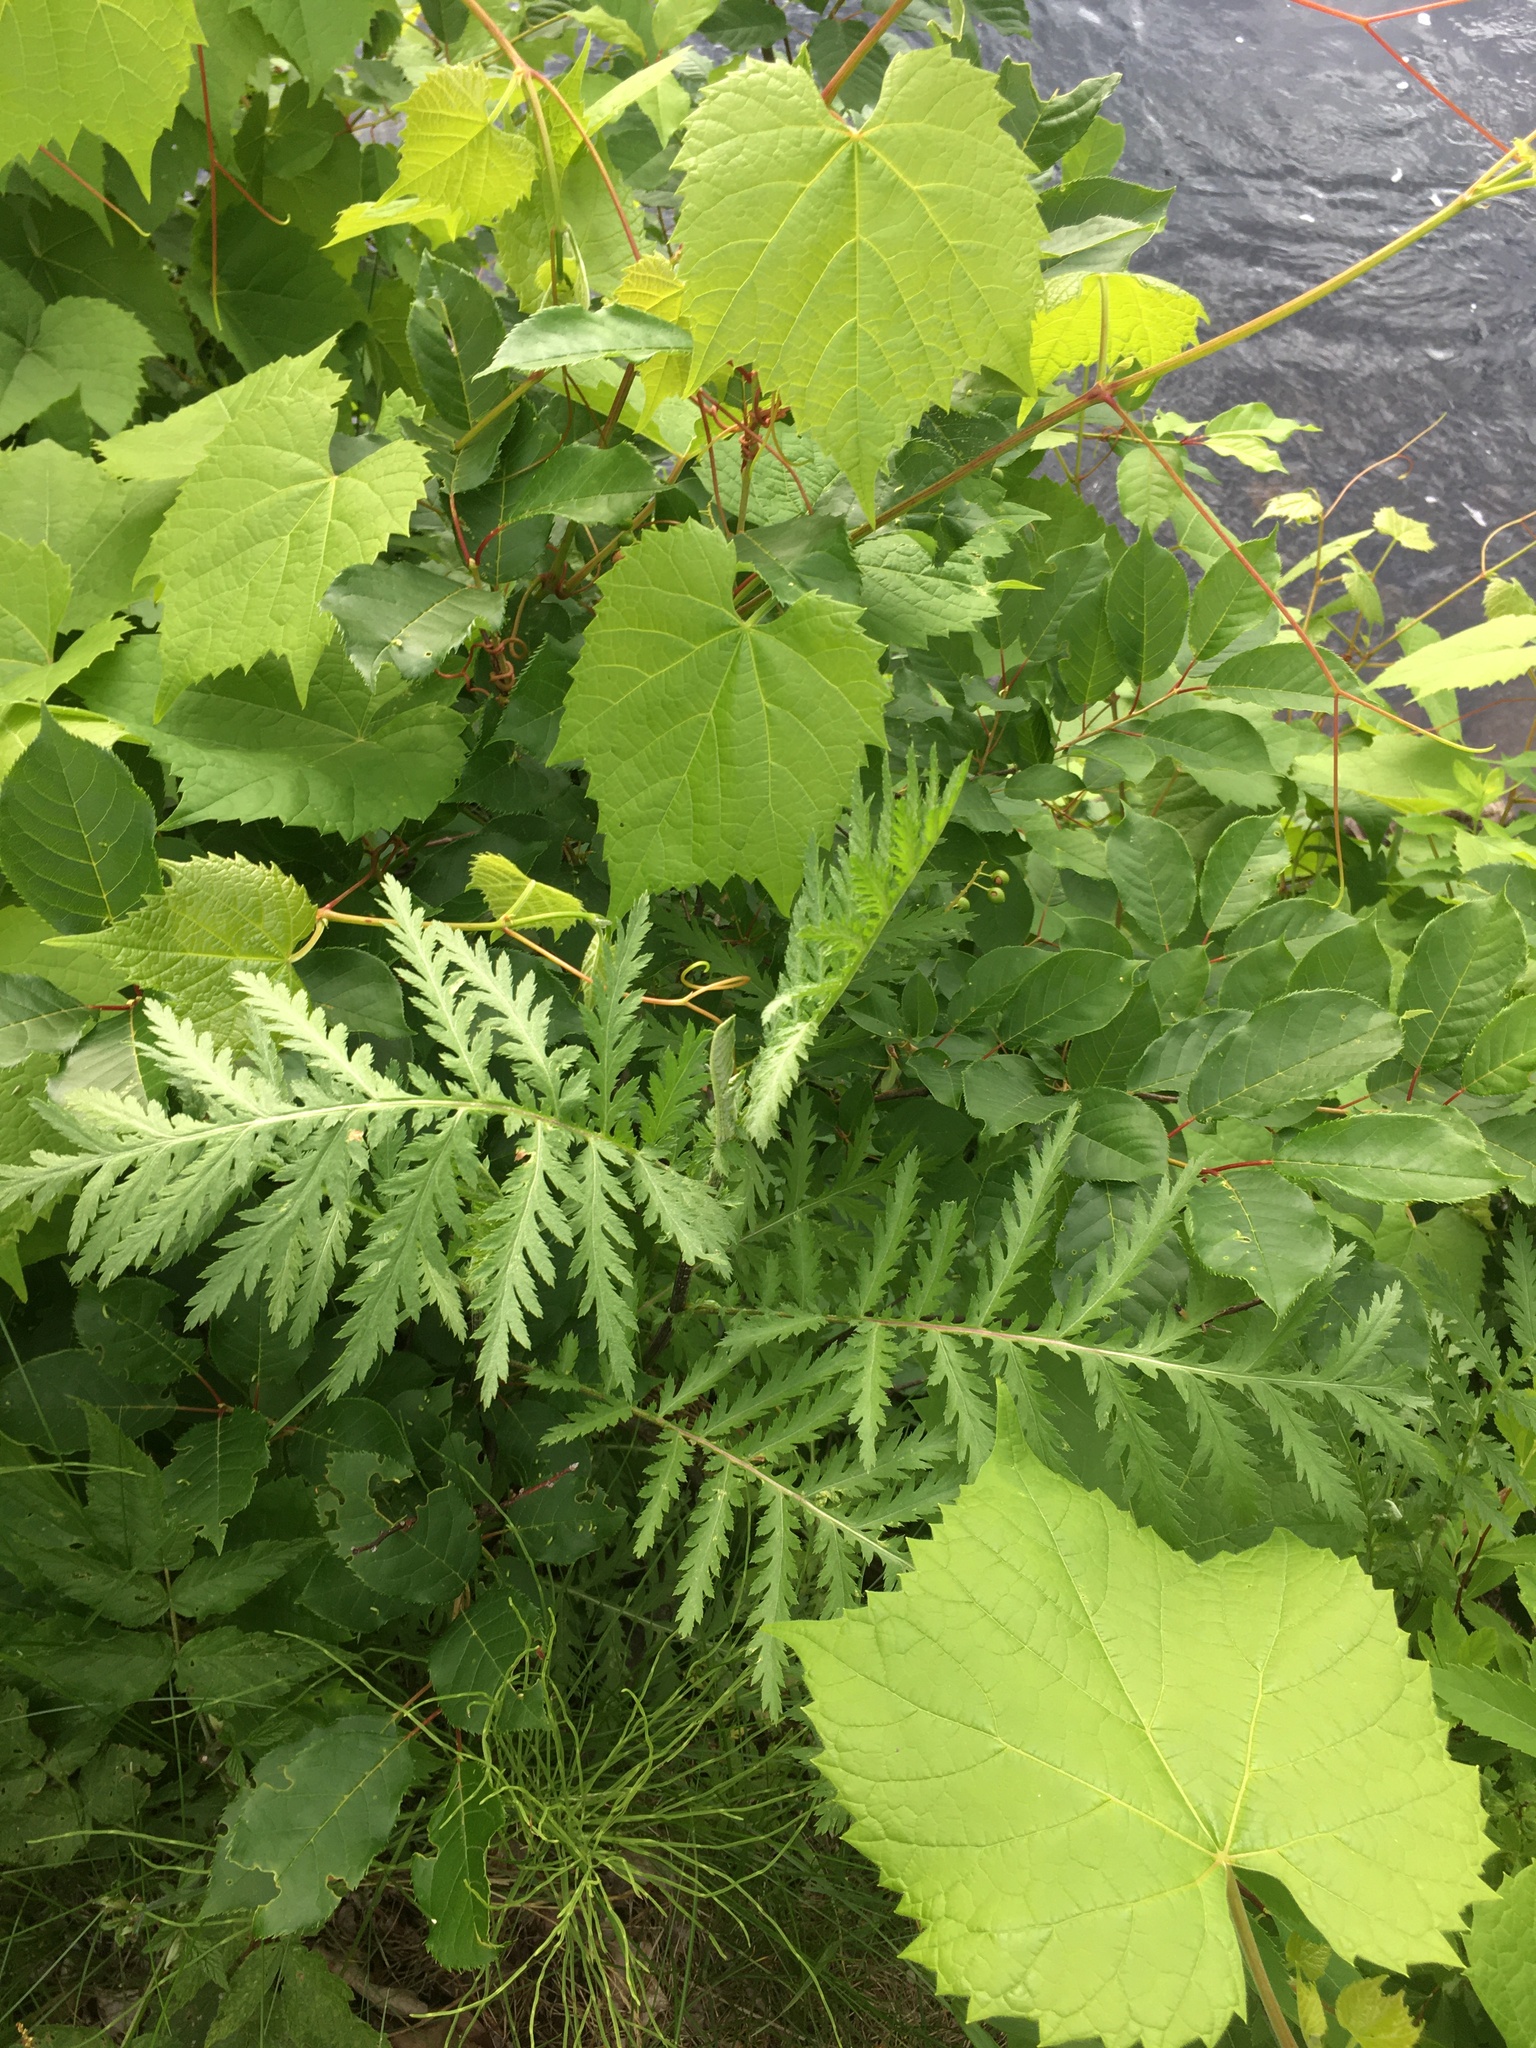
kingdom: Plantae
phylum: Tracheophyta
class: Magnoliopsida
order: Asterales
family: Asteraceae
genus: Tanacetum
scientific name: Tanacetum vulgare
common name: Common tansy
